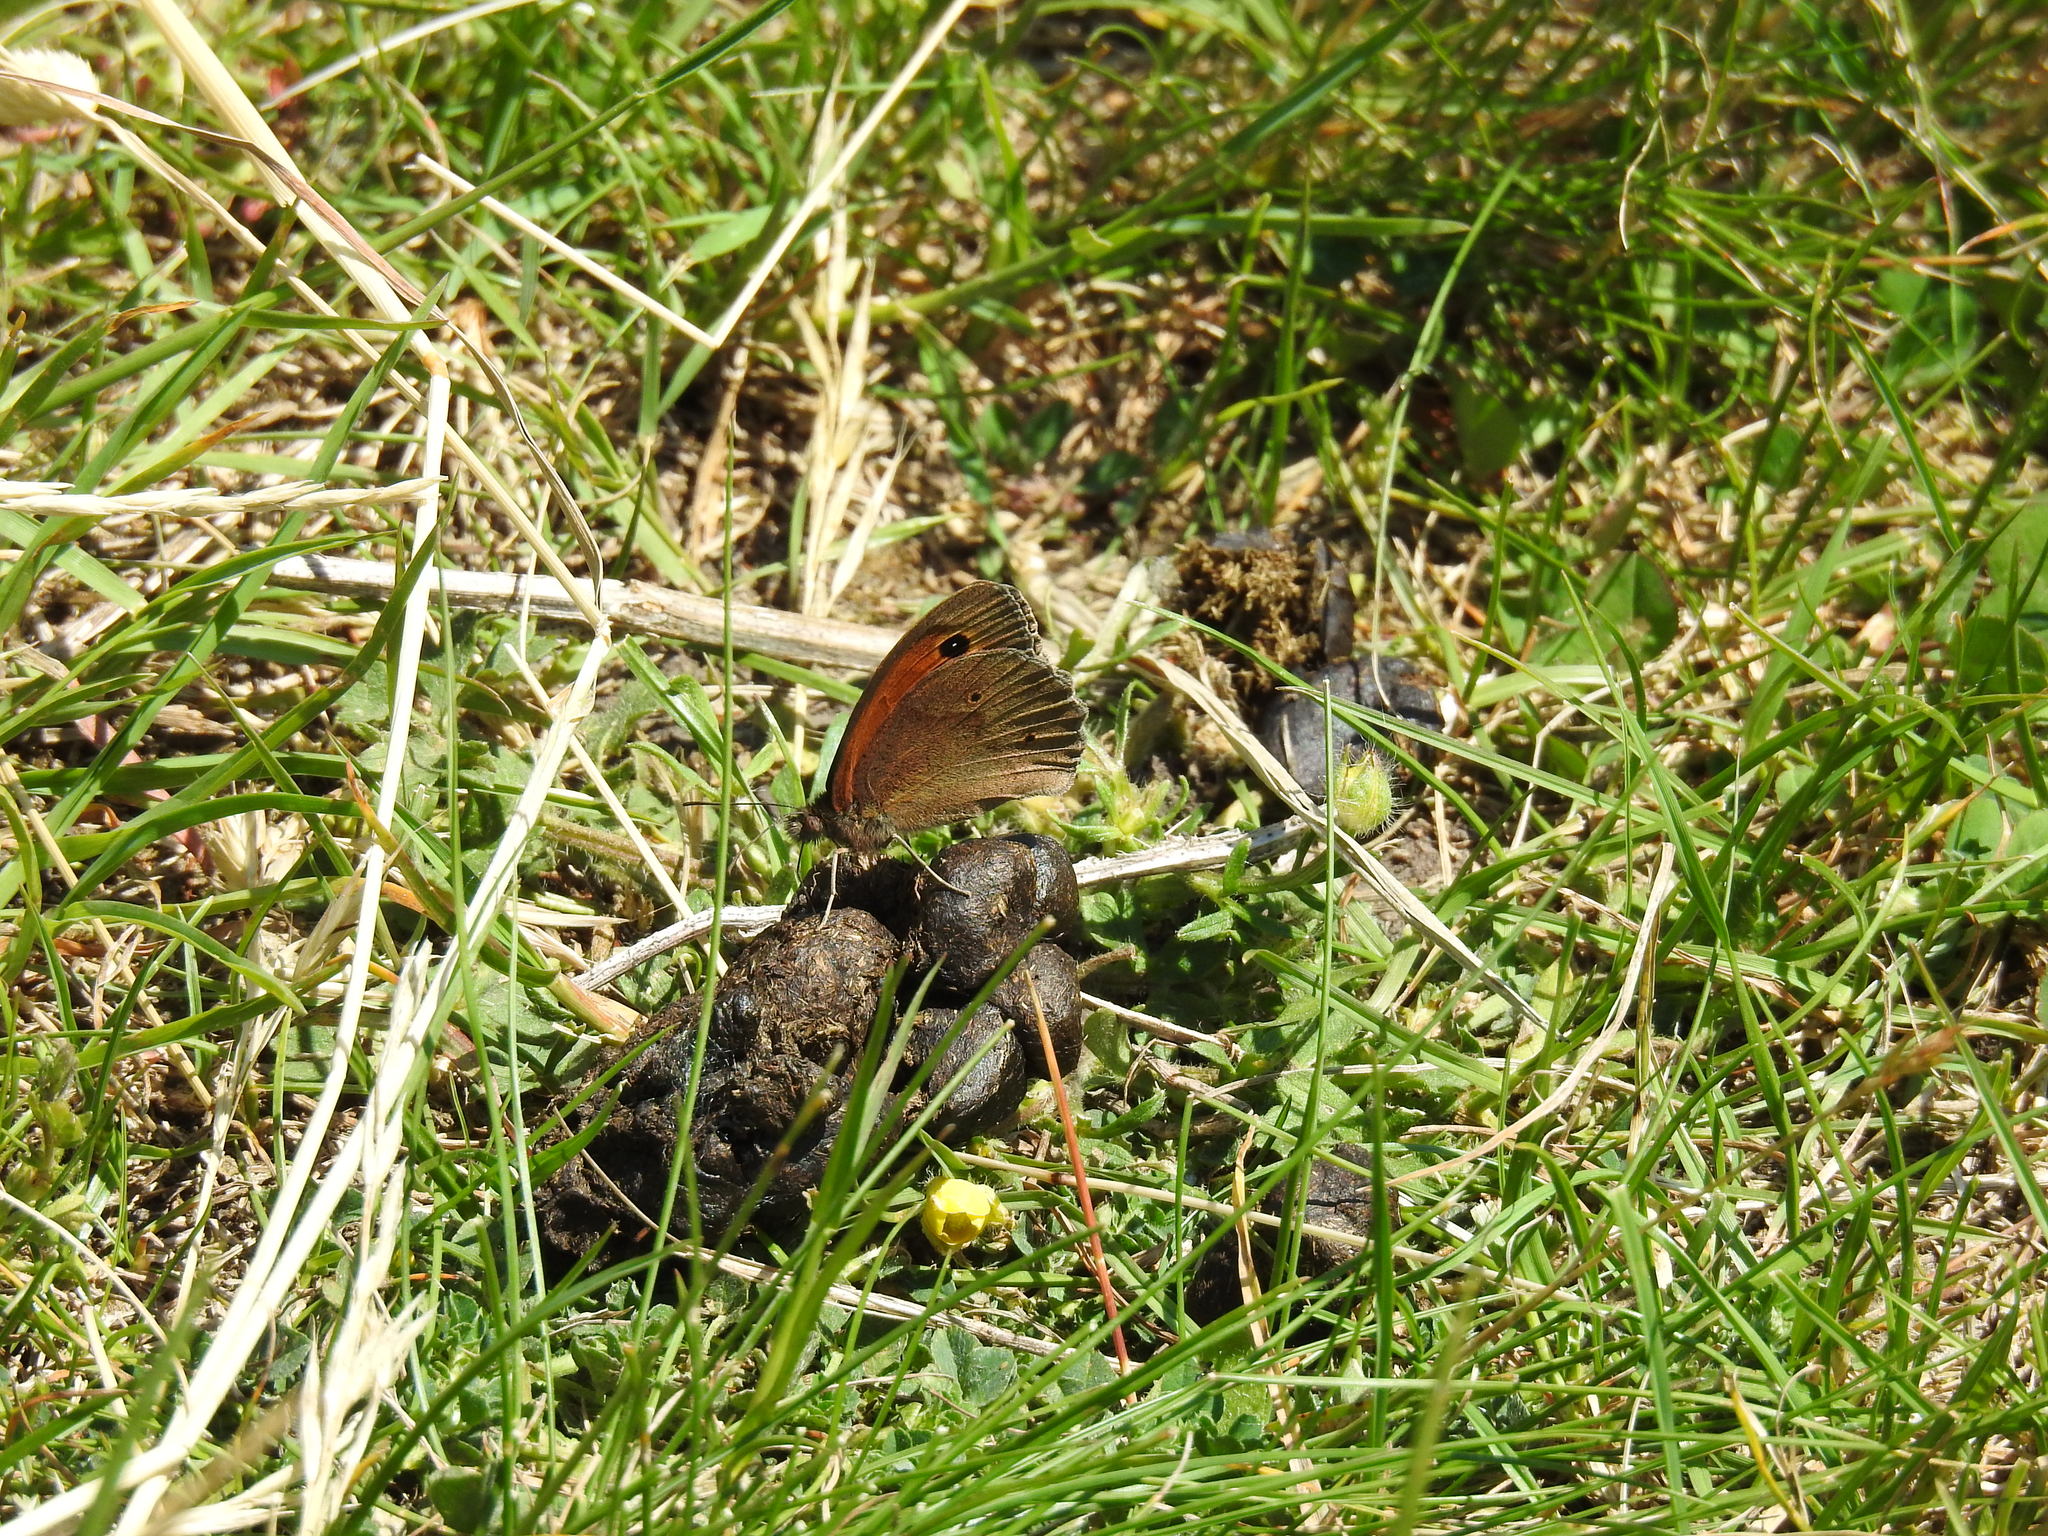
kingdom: Animalia
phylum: Arthropoda
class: Insecta
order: Lepidoptera
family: Nymphalidae
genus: Maniola
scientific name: Maniola jurtina
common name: Meadow brown
